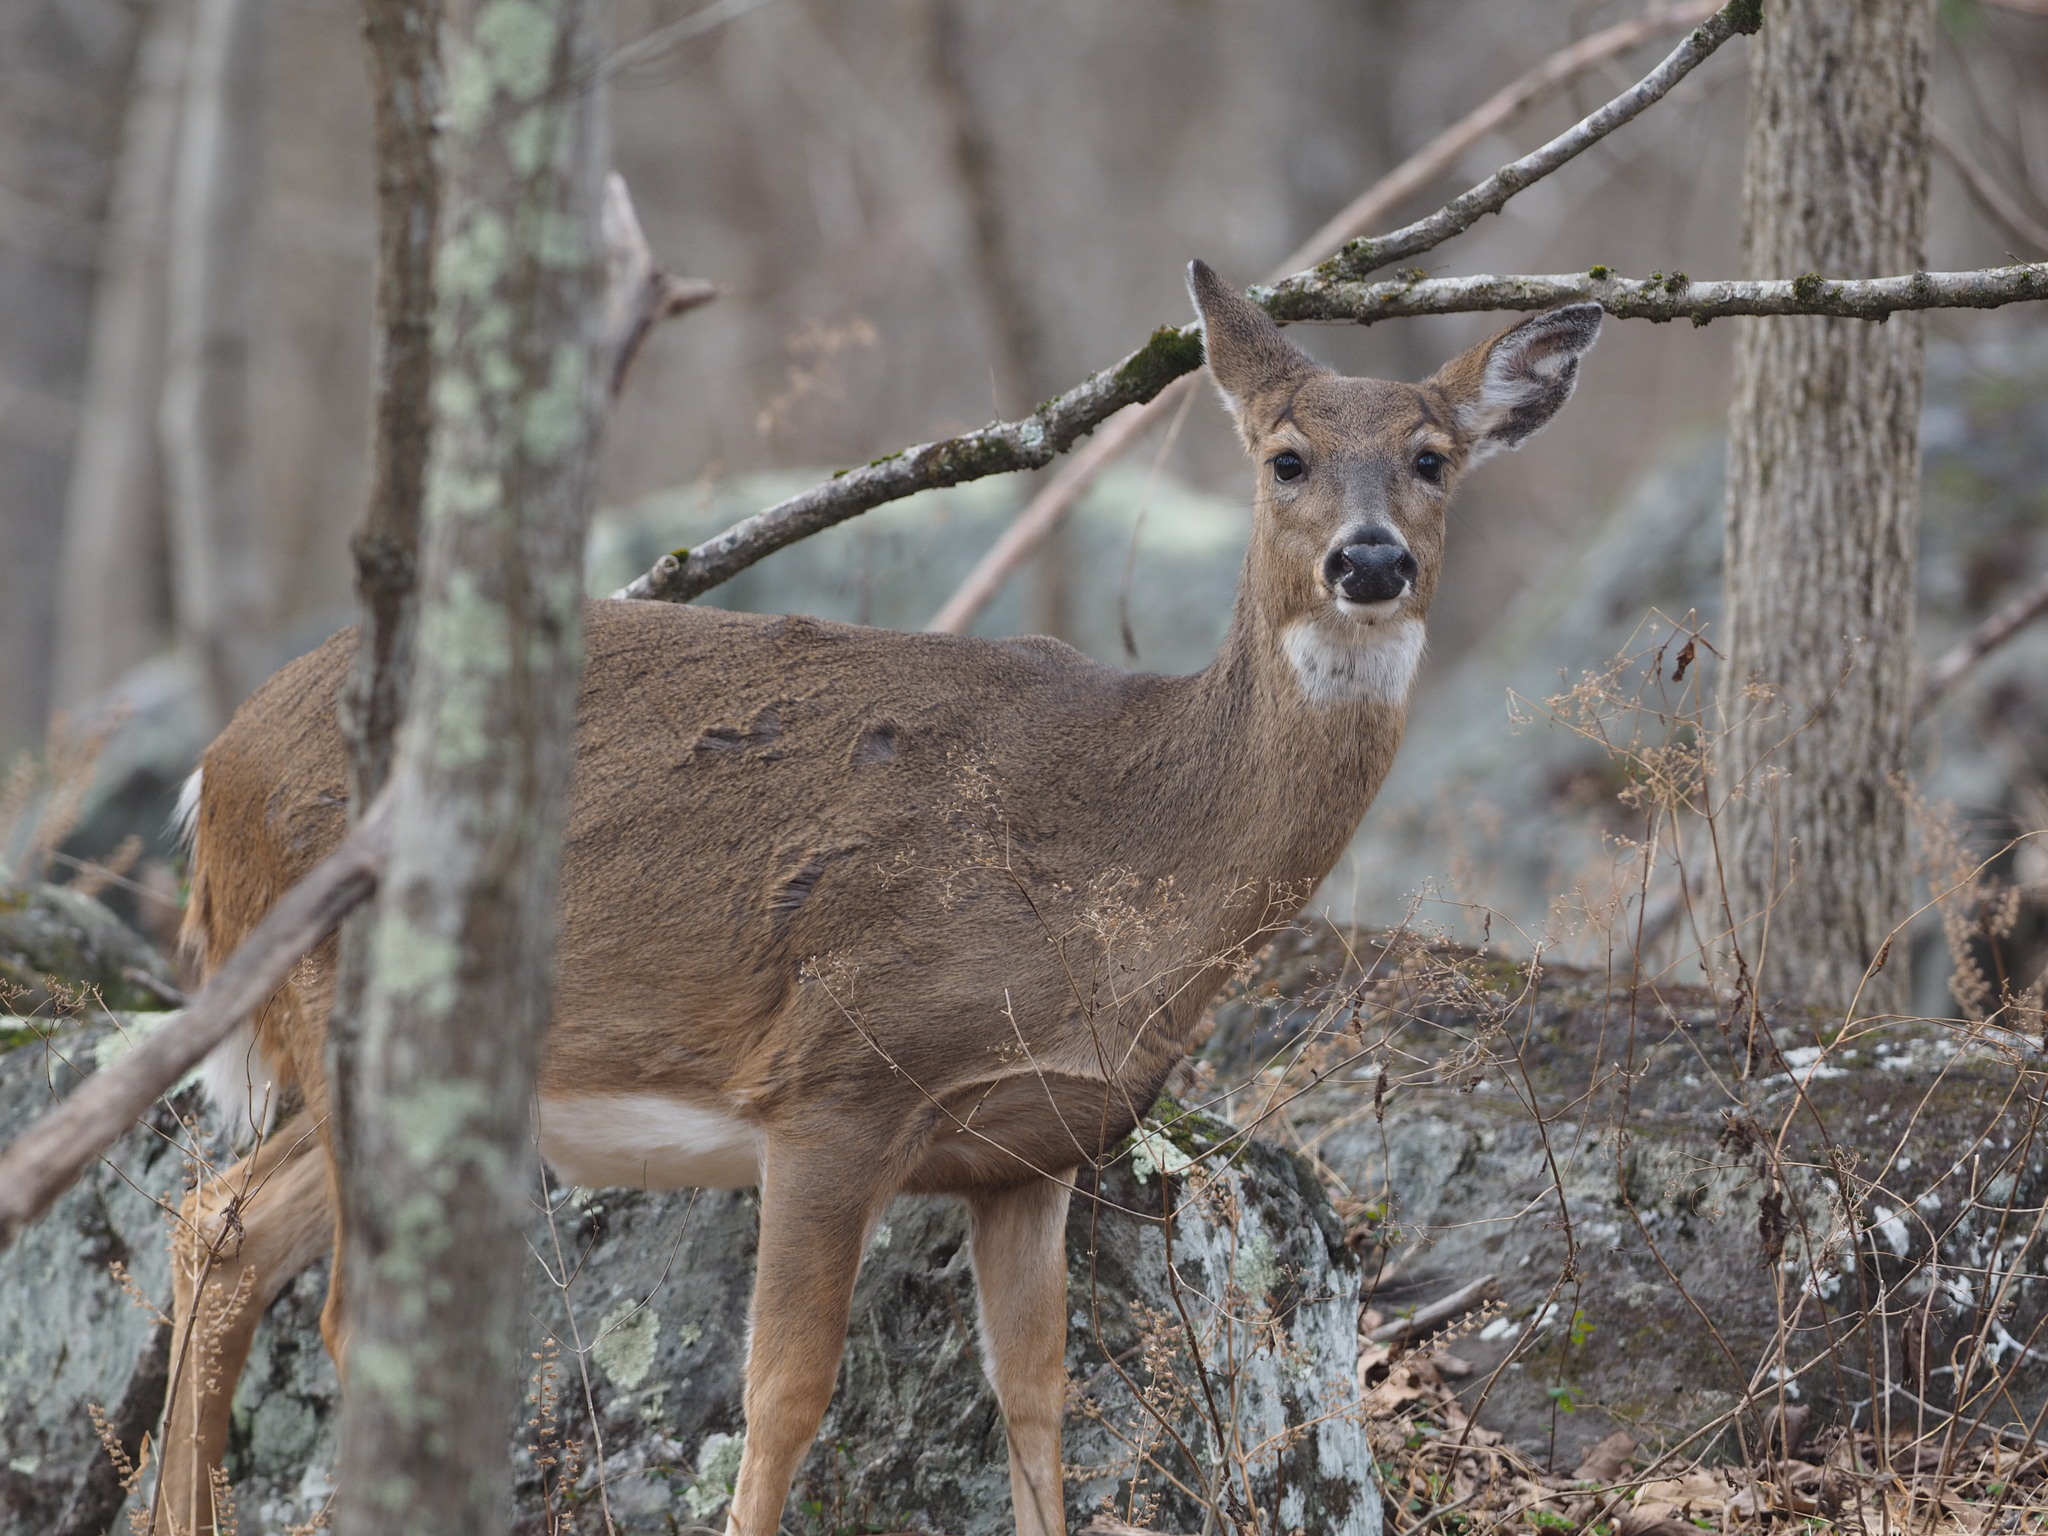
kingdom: Animalia
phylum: Chordata
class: Mammalia
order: Artiodactyla
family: Cervidae
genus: Odocoileus
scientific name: Odocoileus virginianus
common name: White-tailed deer
